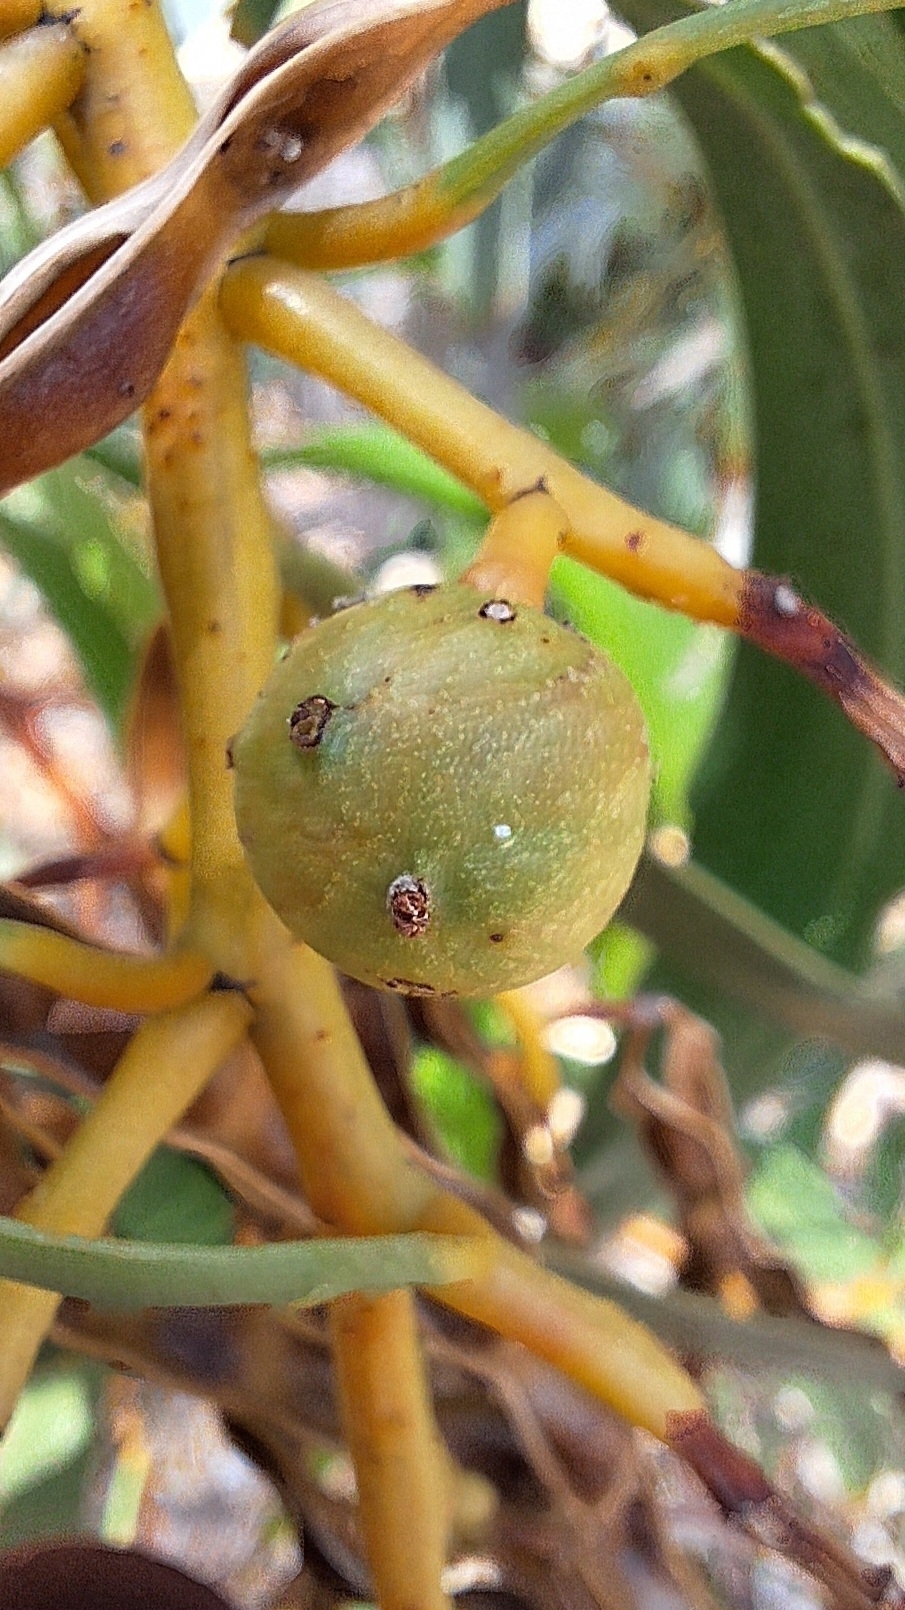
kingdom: Animalia
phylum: Arthropoda
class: Insecta
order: Hymenoptera
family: Pteromalidae
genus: Trichilogaster
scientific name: Trichilogaster signiventris
